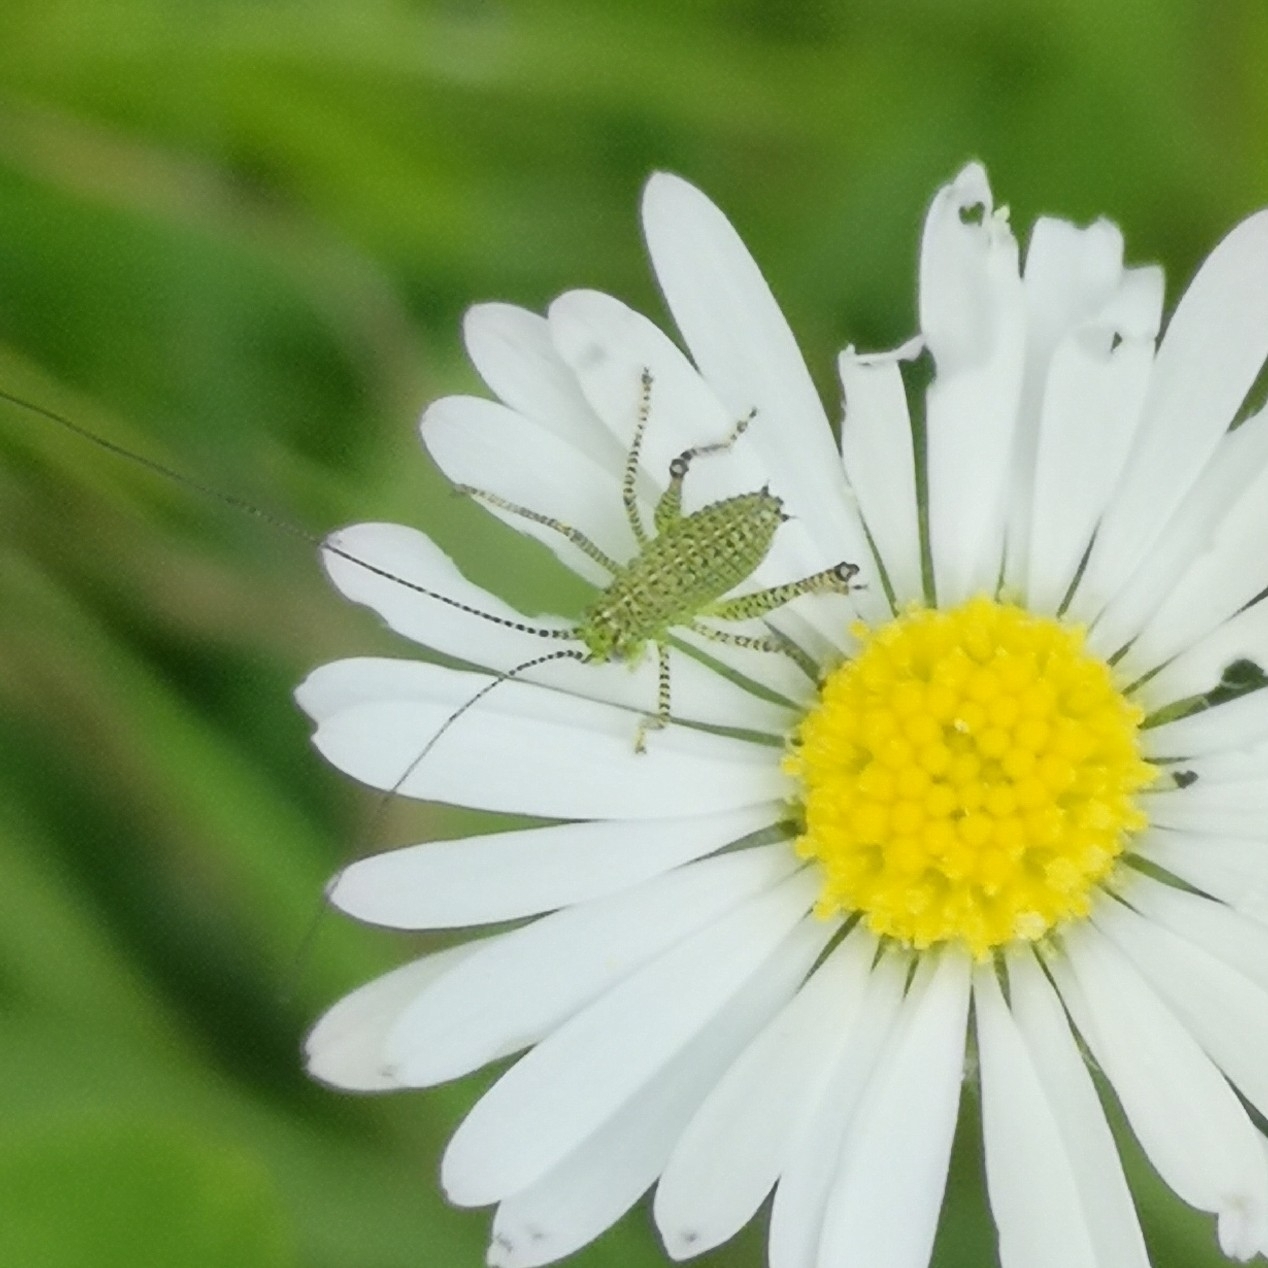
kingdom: Animalia
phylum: Arthropoda
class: Insecta
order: Orthoptera
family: Tettigoniidae
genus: Leptophyes
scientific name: Leptophyes punctatissima
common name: Speckled bush-cricket
